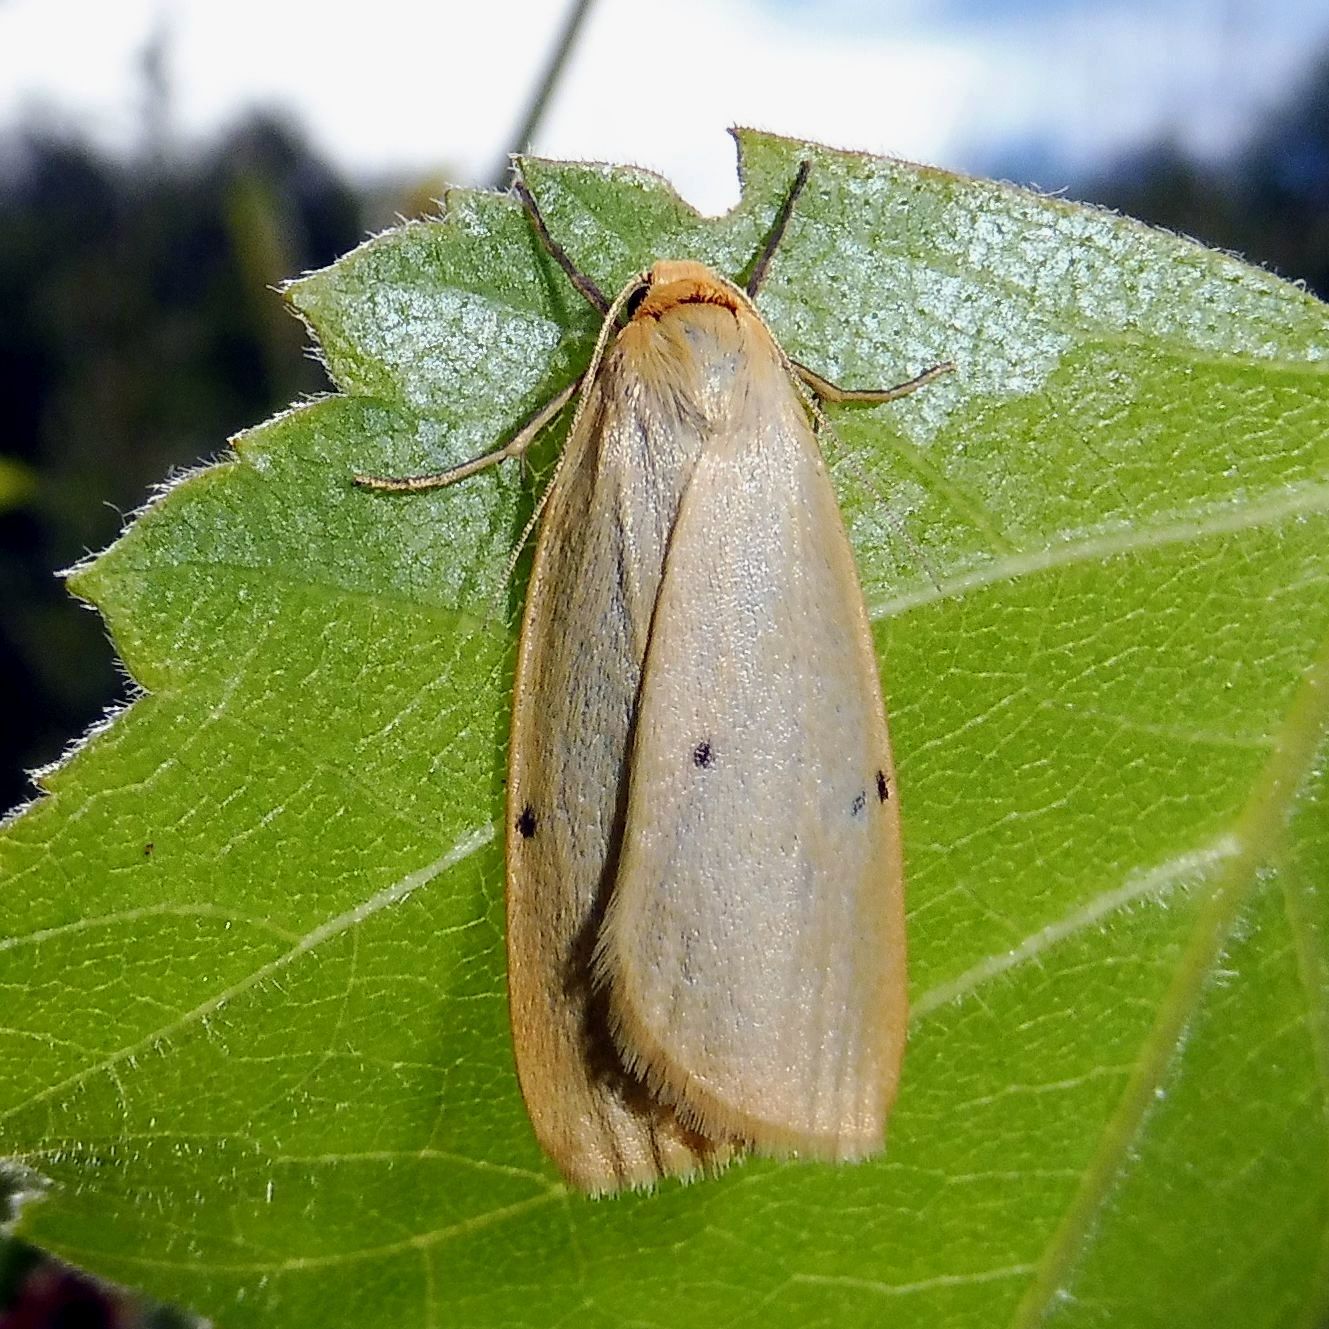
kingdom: Animalia
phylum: Arthropoda
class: Insecta
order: Lepidoptera
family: Erebidae
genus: Cybosia
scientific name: Cybosia mesomella
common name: Four-dotted footman
